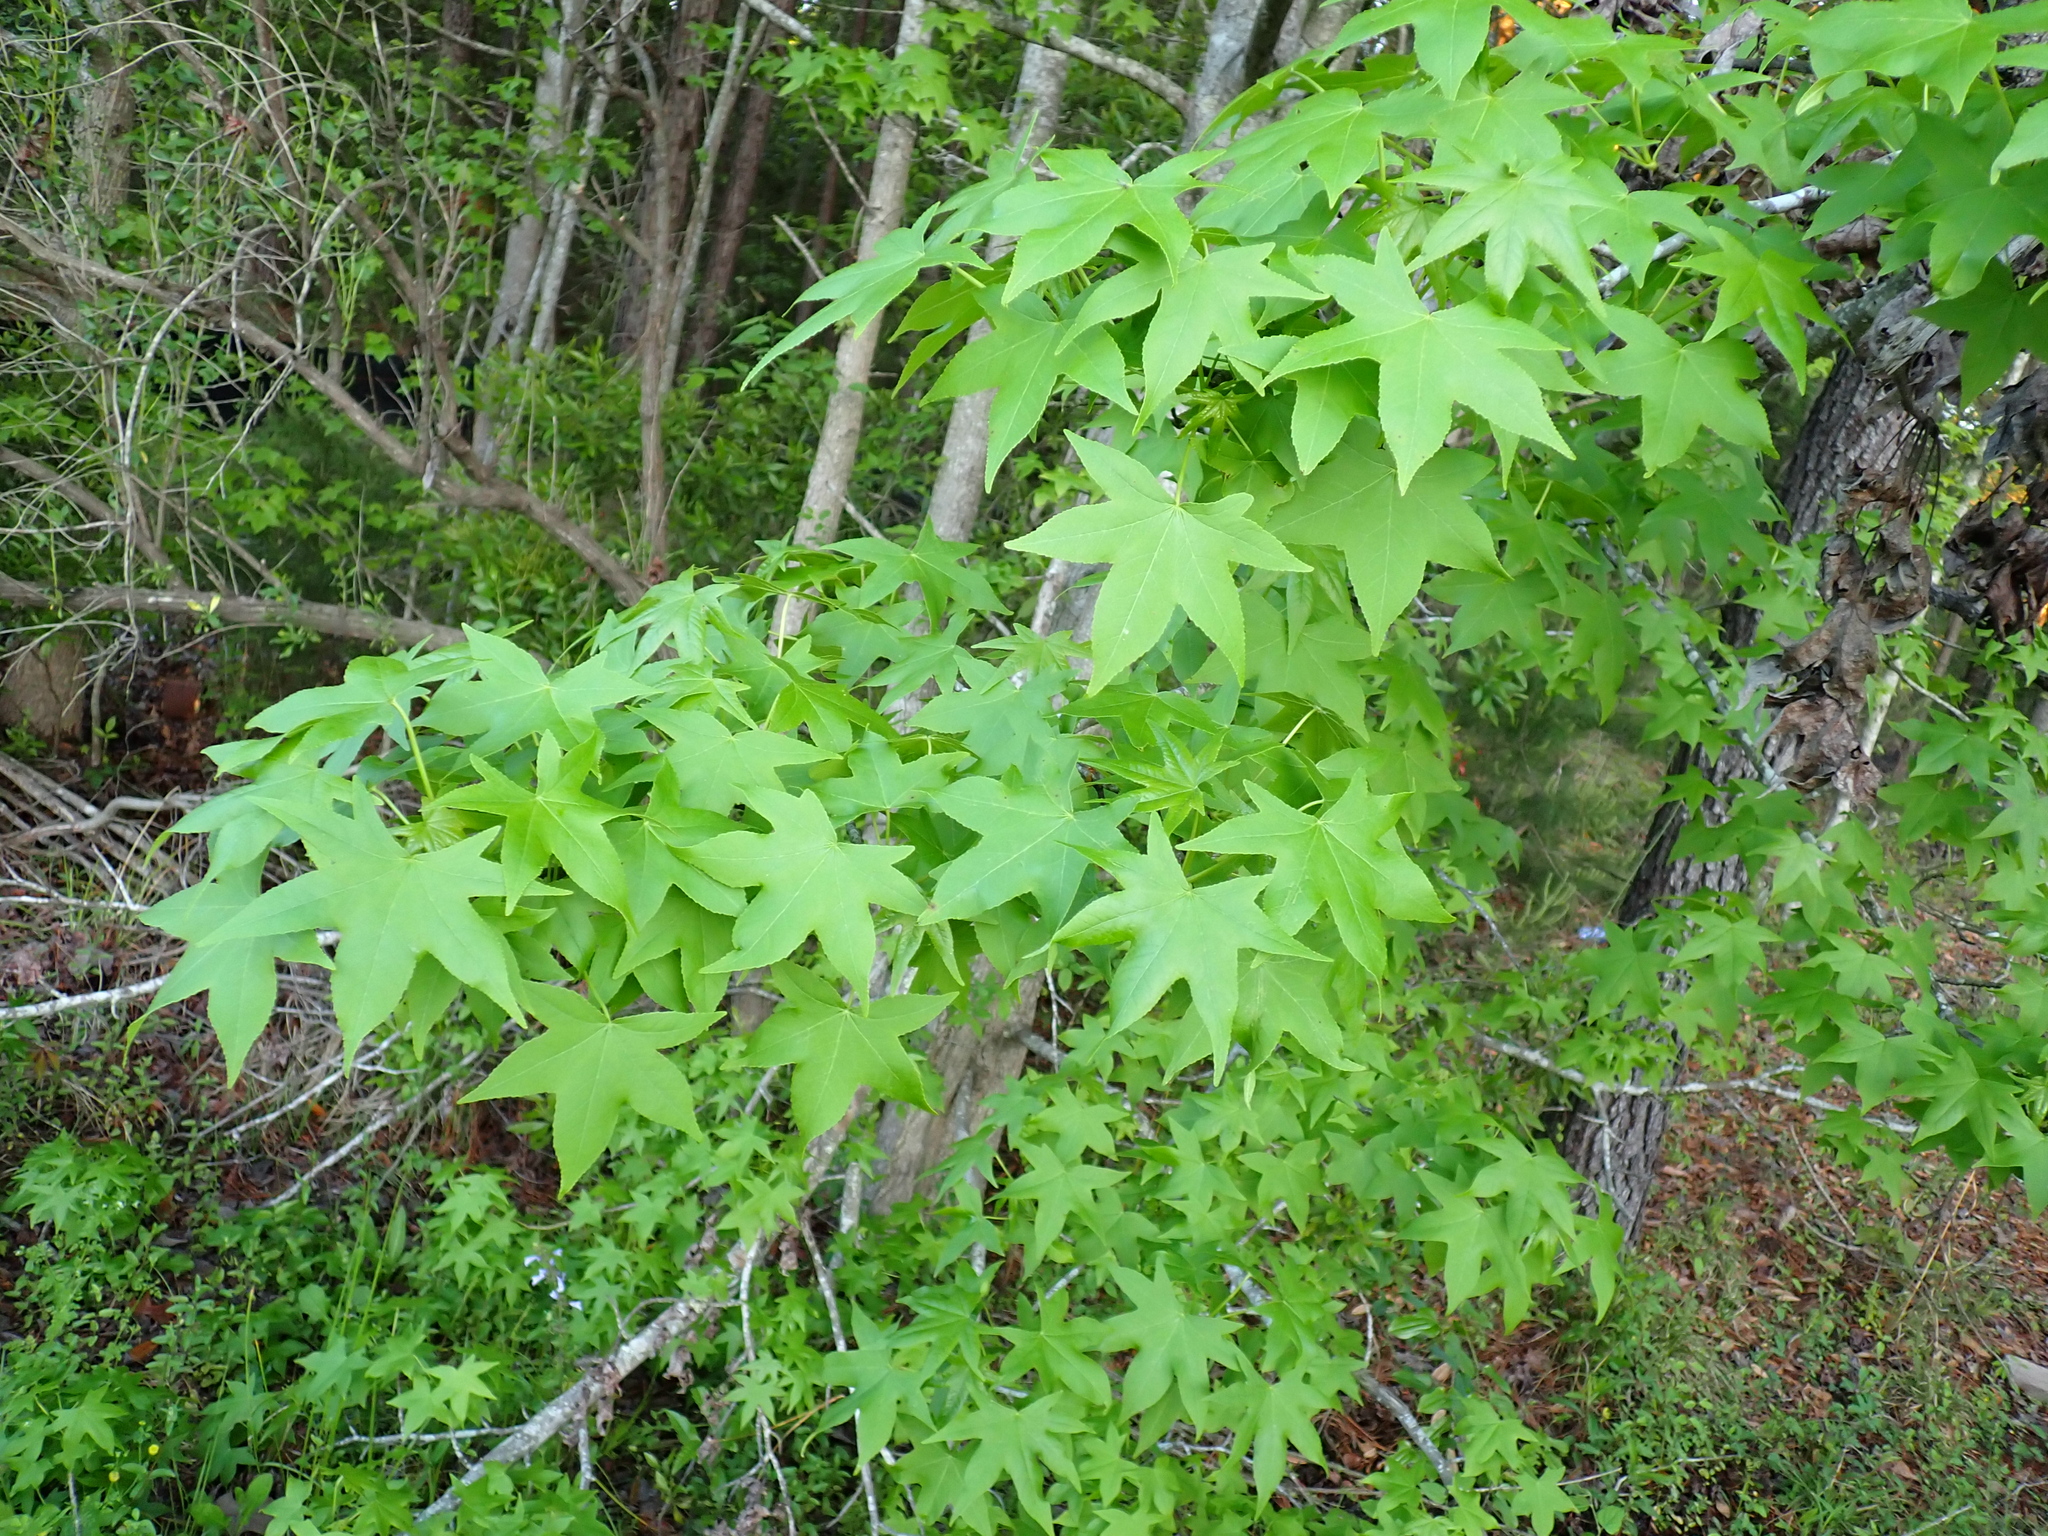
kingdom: Plantae
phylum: Tracheophyta
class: Magnoliopsida
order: Saxifragales
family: Altingiaceae
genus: Liquidambar
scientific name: Liquidambar styraciflua
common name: Sweet gum
